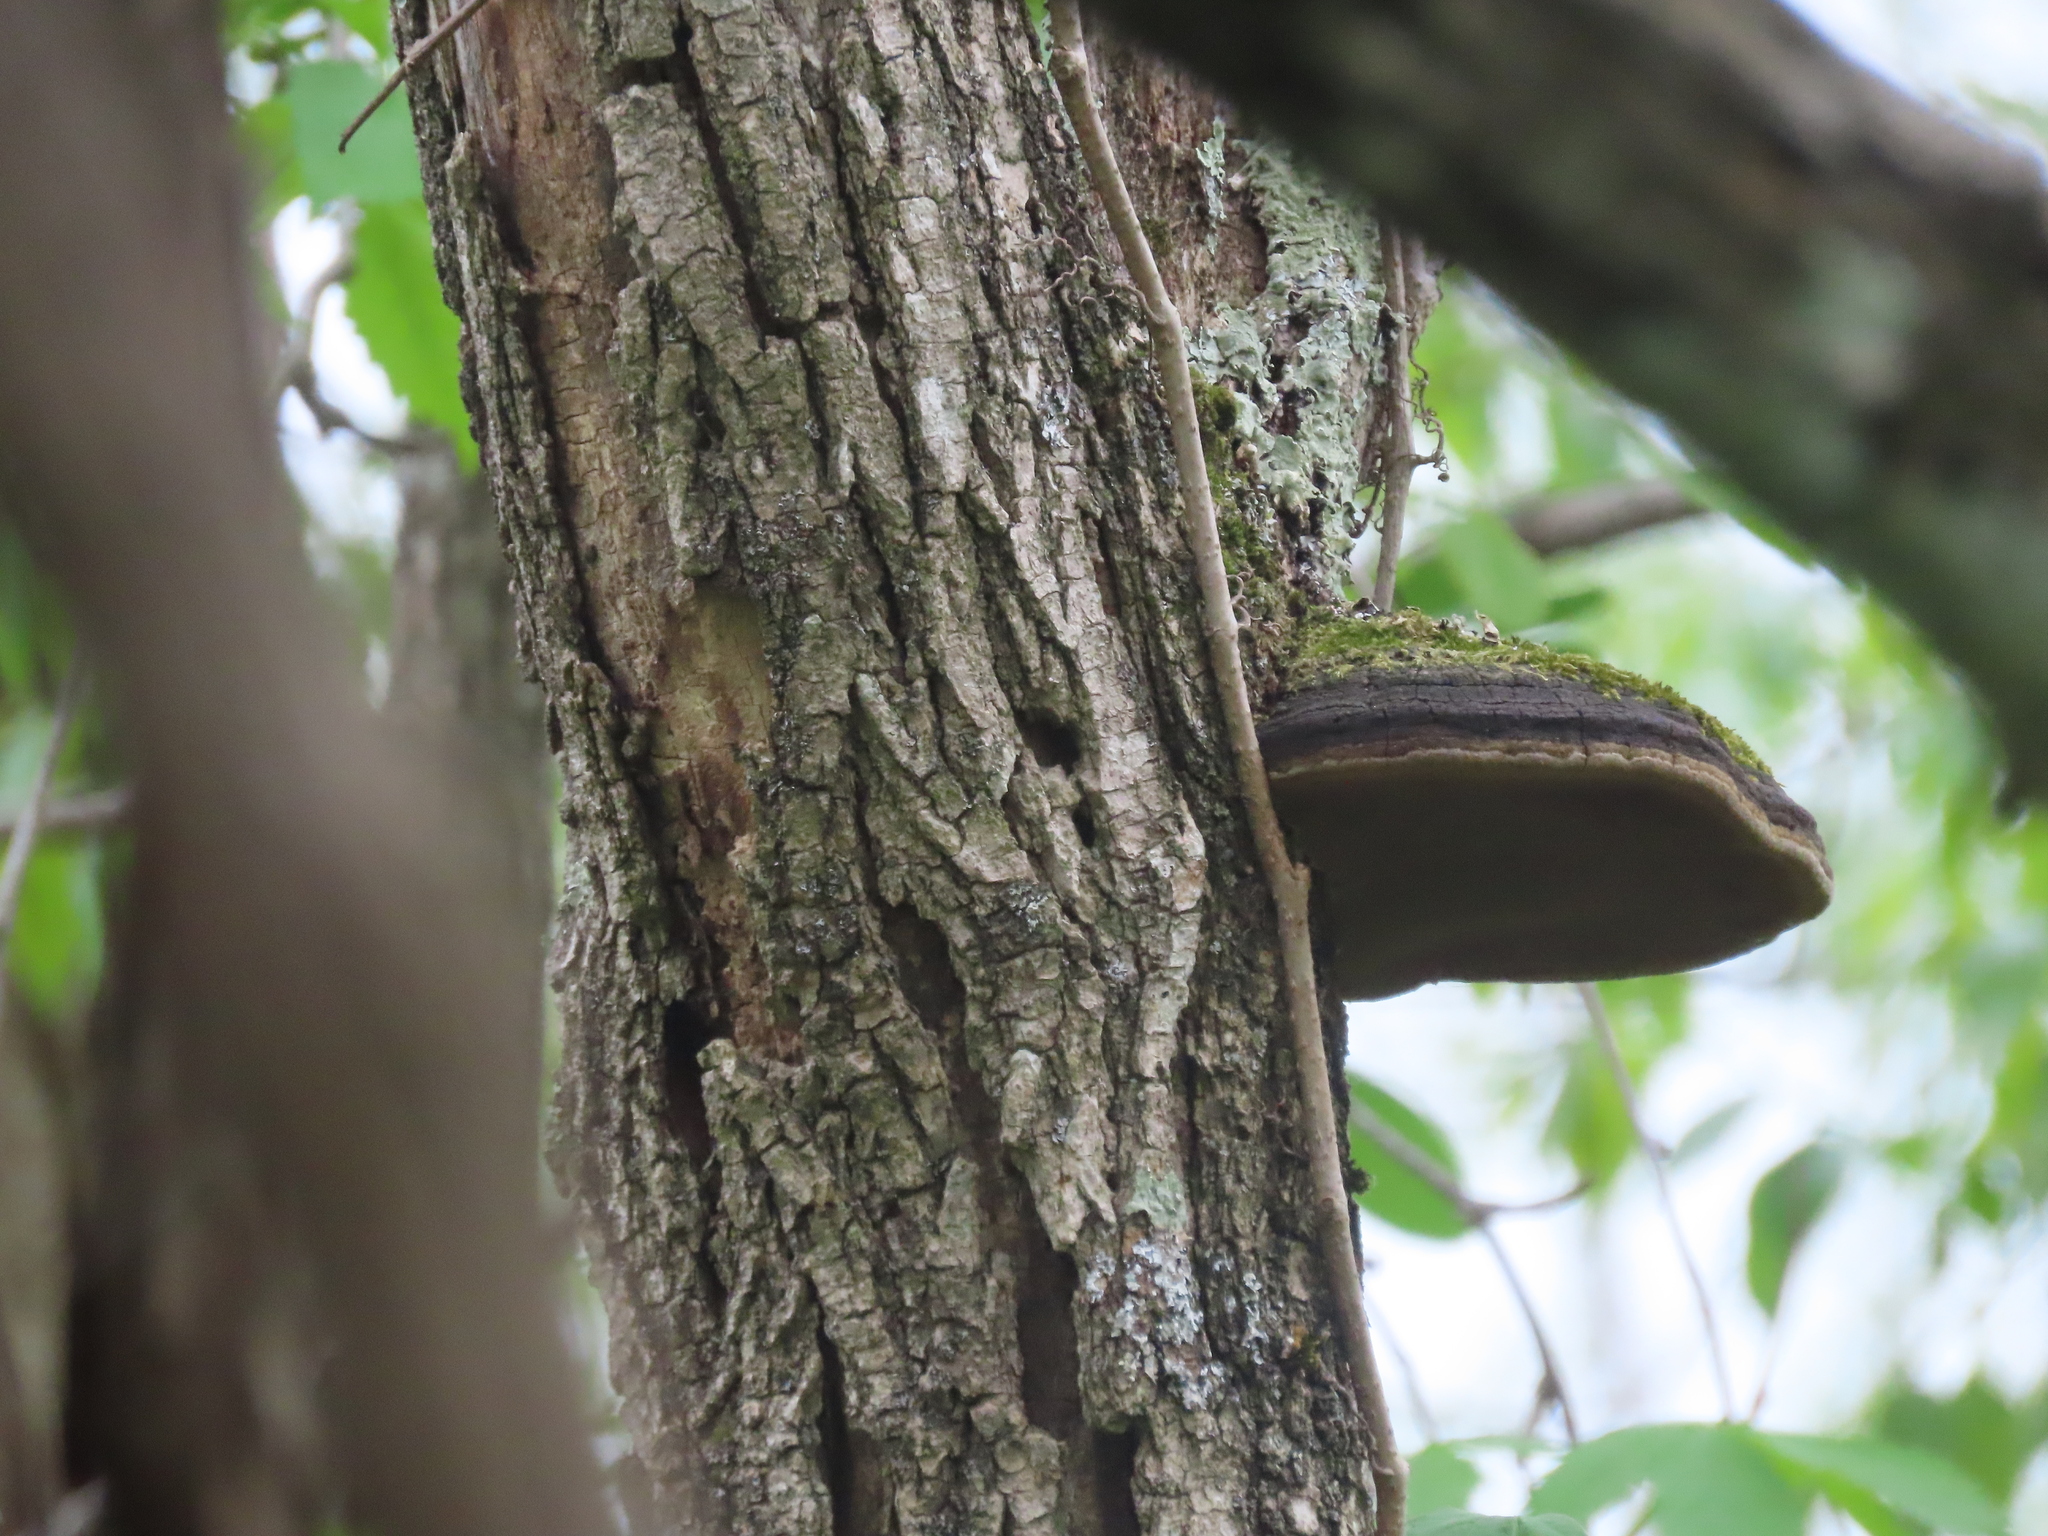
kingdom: Fungi
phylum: Basidiomycota
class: Agaricomycetes
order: Hymenochaetales
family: Hymenochaetaceae
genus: Phellinus
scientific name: Phellinus robiniae
